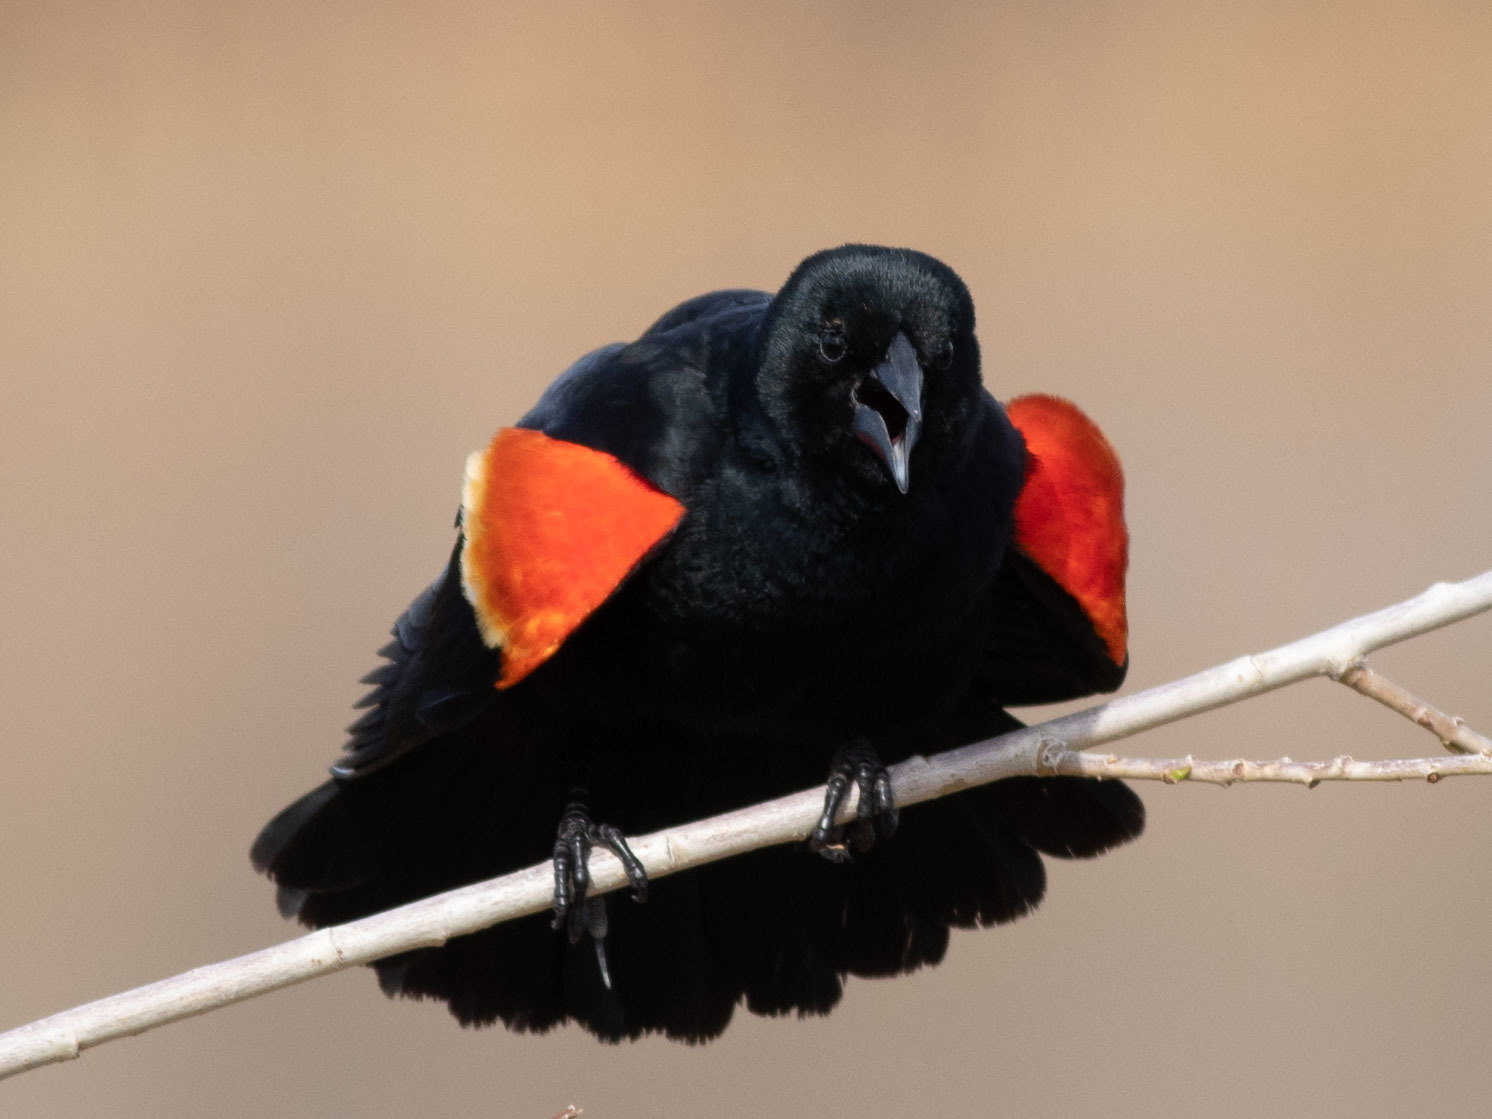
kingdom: Animalia
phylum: Chordata
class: Aves
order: Passeriformes
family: Icteridae
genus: Agelaius
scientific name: Agelaius phoeniceus
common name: Red-winged blackbird
